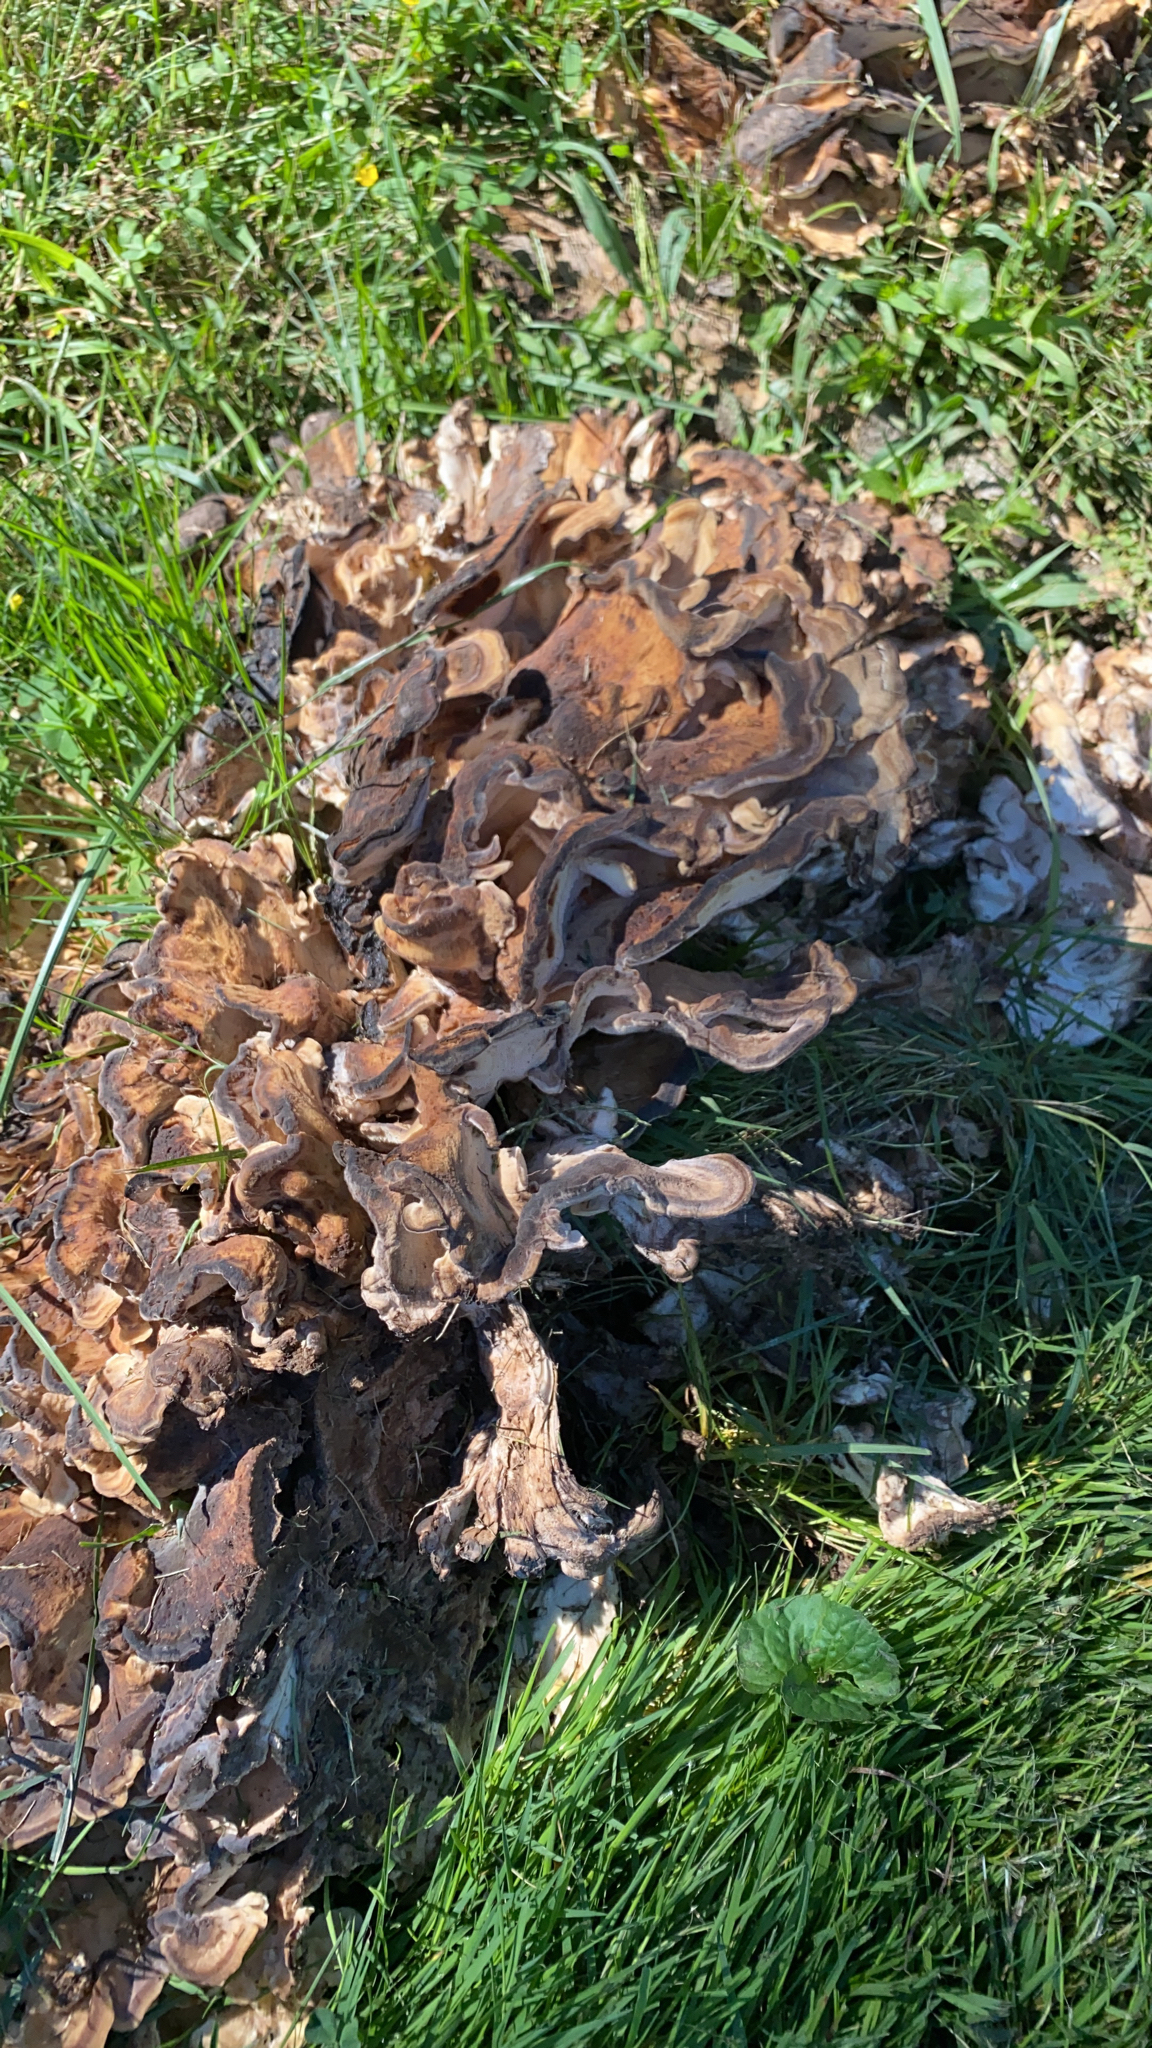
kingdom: Fungi
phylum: Basidiomycota
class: Agaricomycetes
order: Polyporales
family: Grifolaceae
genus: Grifola
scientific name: Grifola frondosa
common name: Hen of the woods
